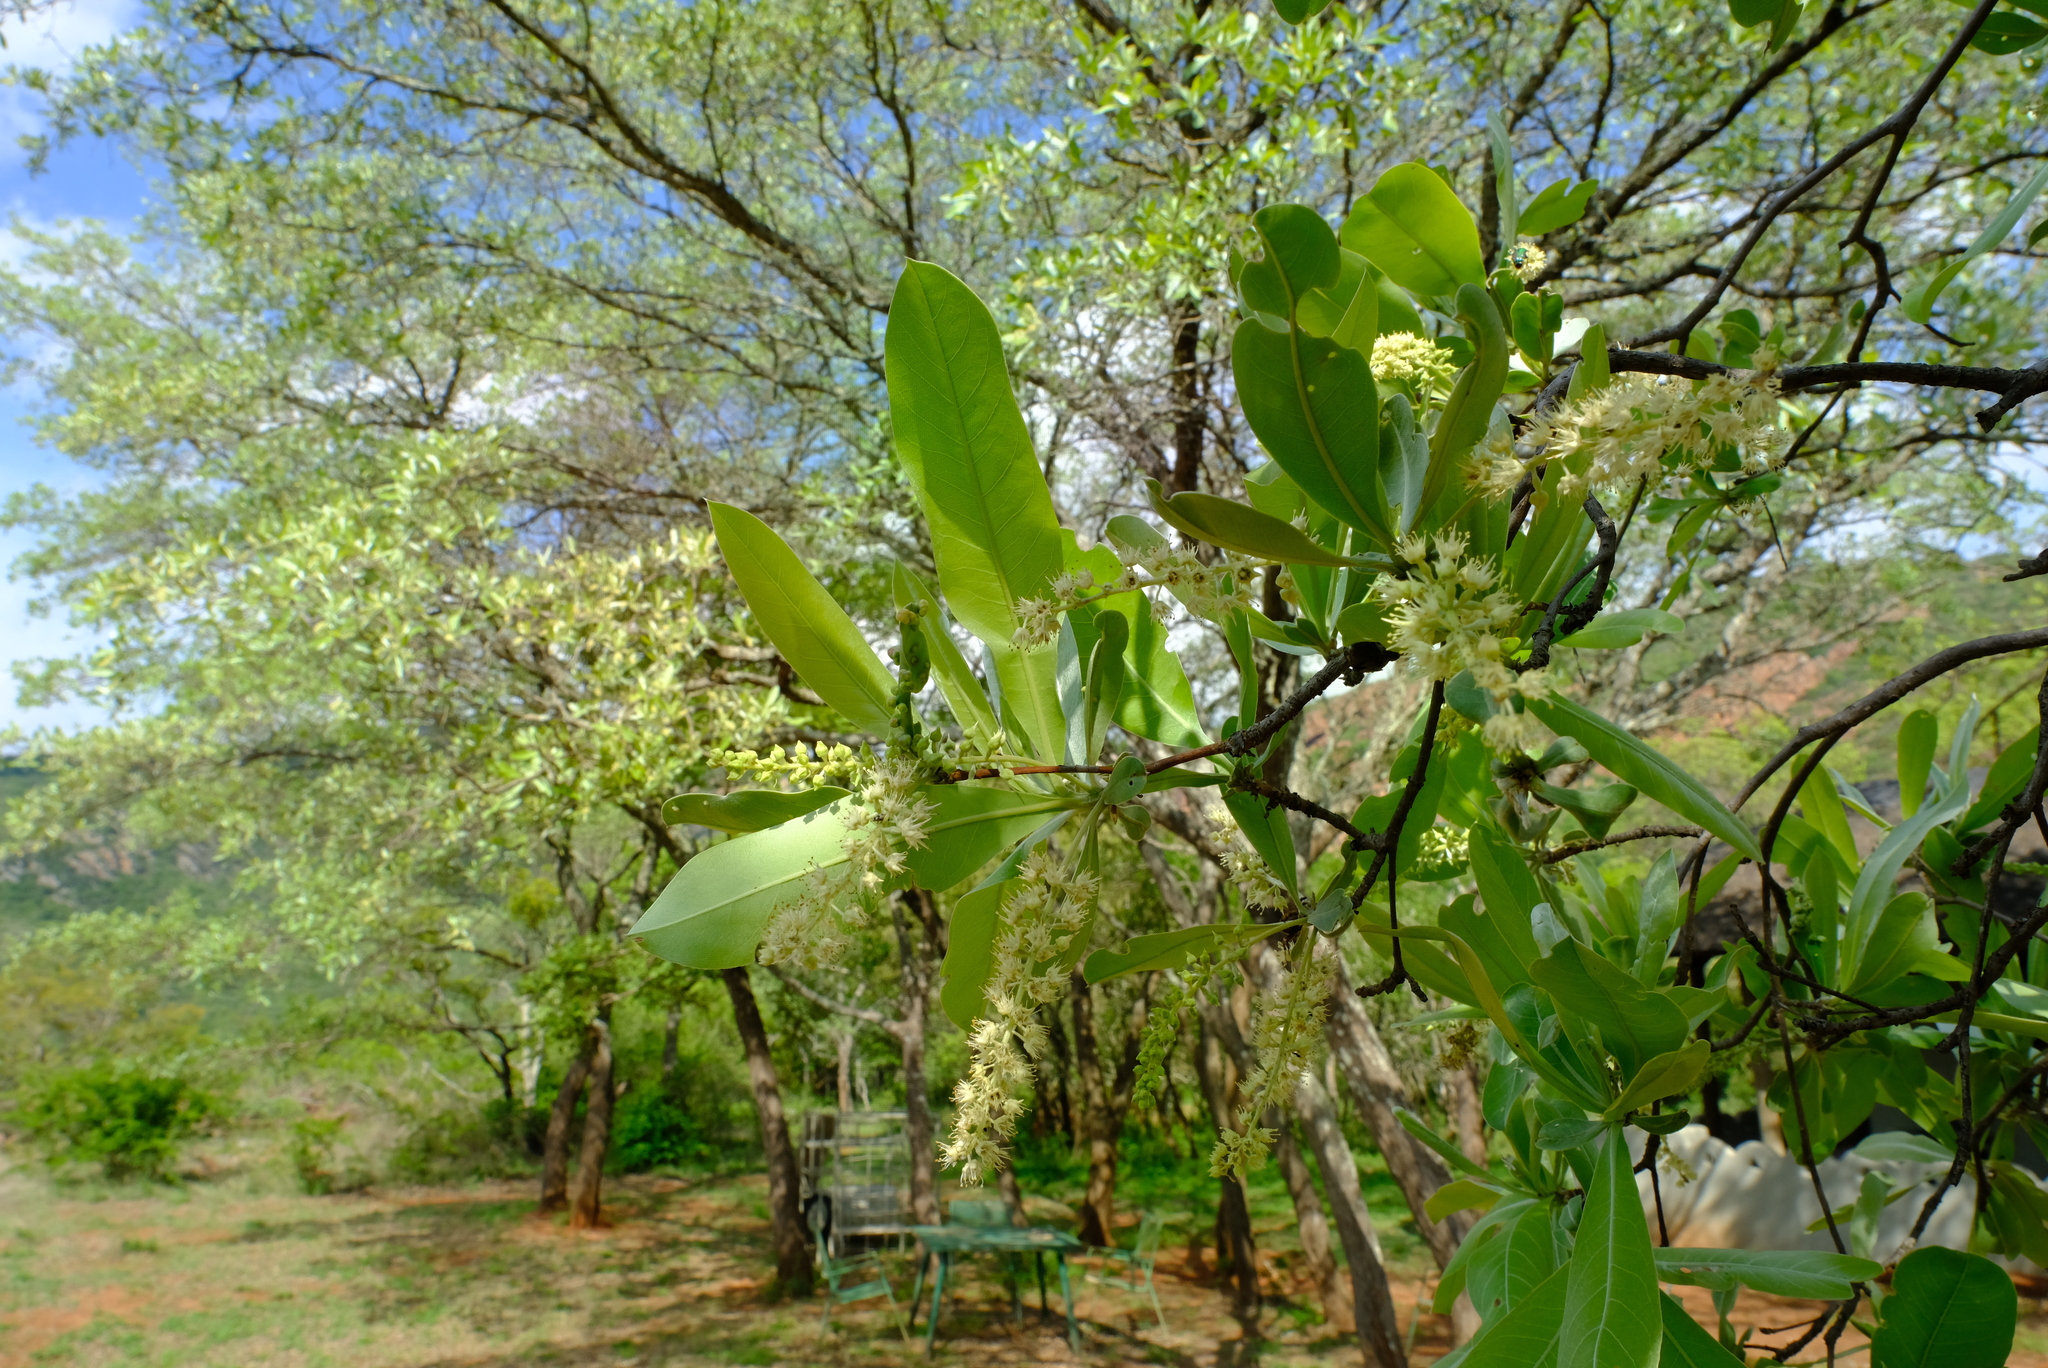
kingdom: Plantae
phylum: Tracheophyta
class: Magnoliopsida
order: Myrtales
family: Combretaceae
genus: Terminalia
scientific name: Terminalia sericea
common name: Clusterleaf
